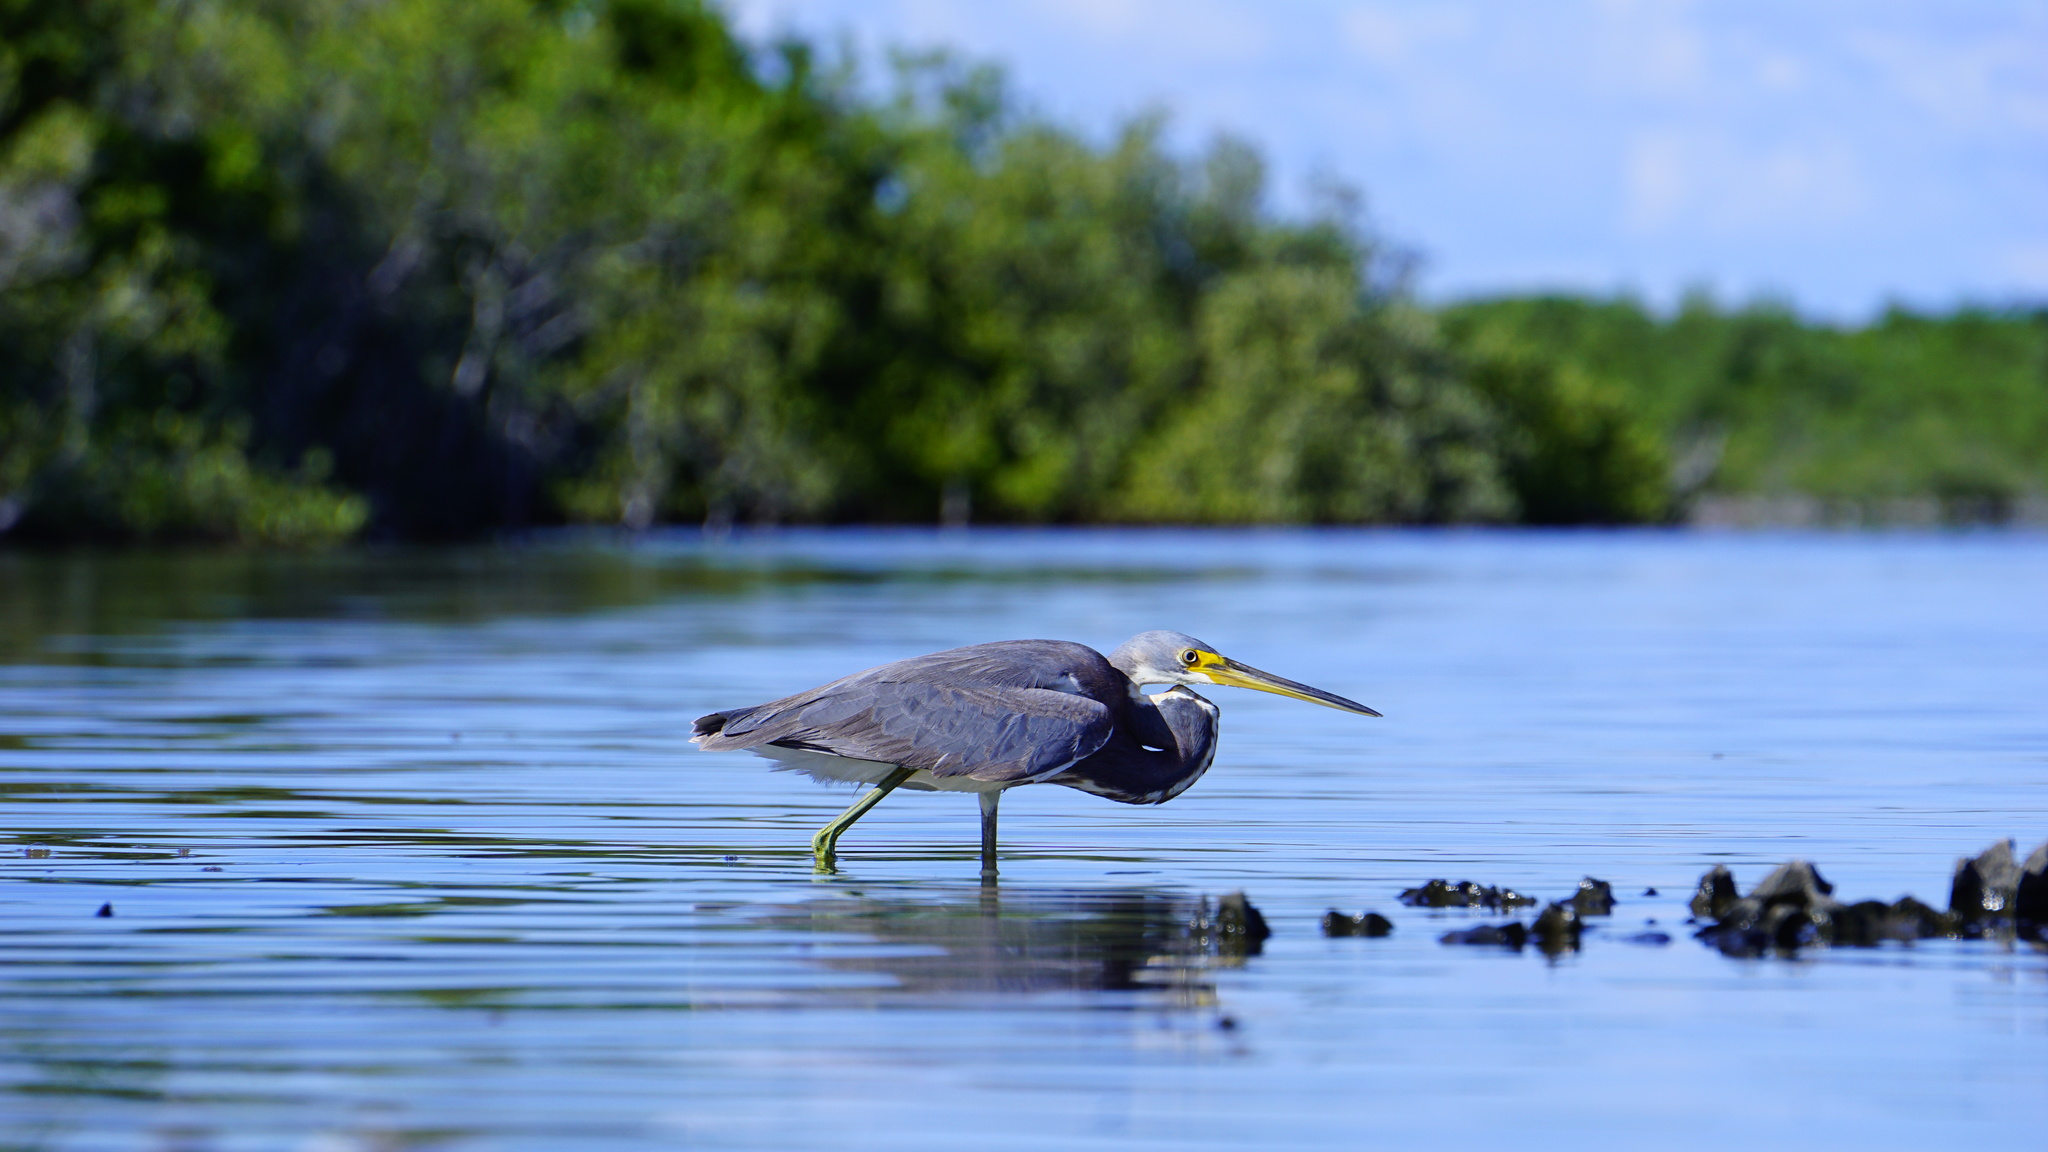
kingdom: Animalia
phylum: Chordata
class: Aves
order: Pelecaniformes
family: Ardeidae
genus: Egretta
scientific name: Egretta tricolor
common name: Tricolored heron
